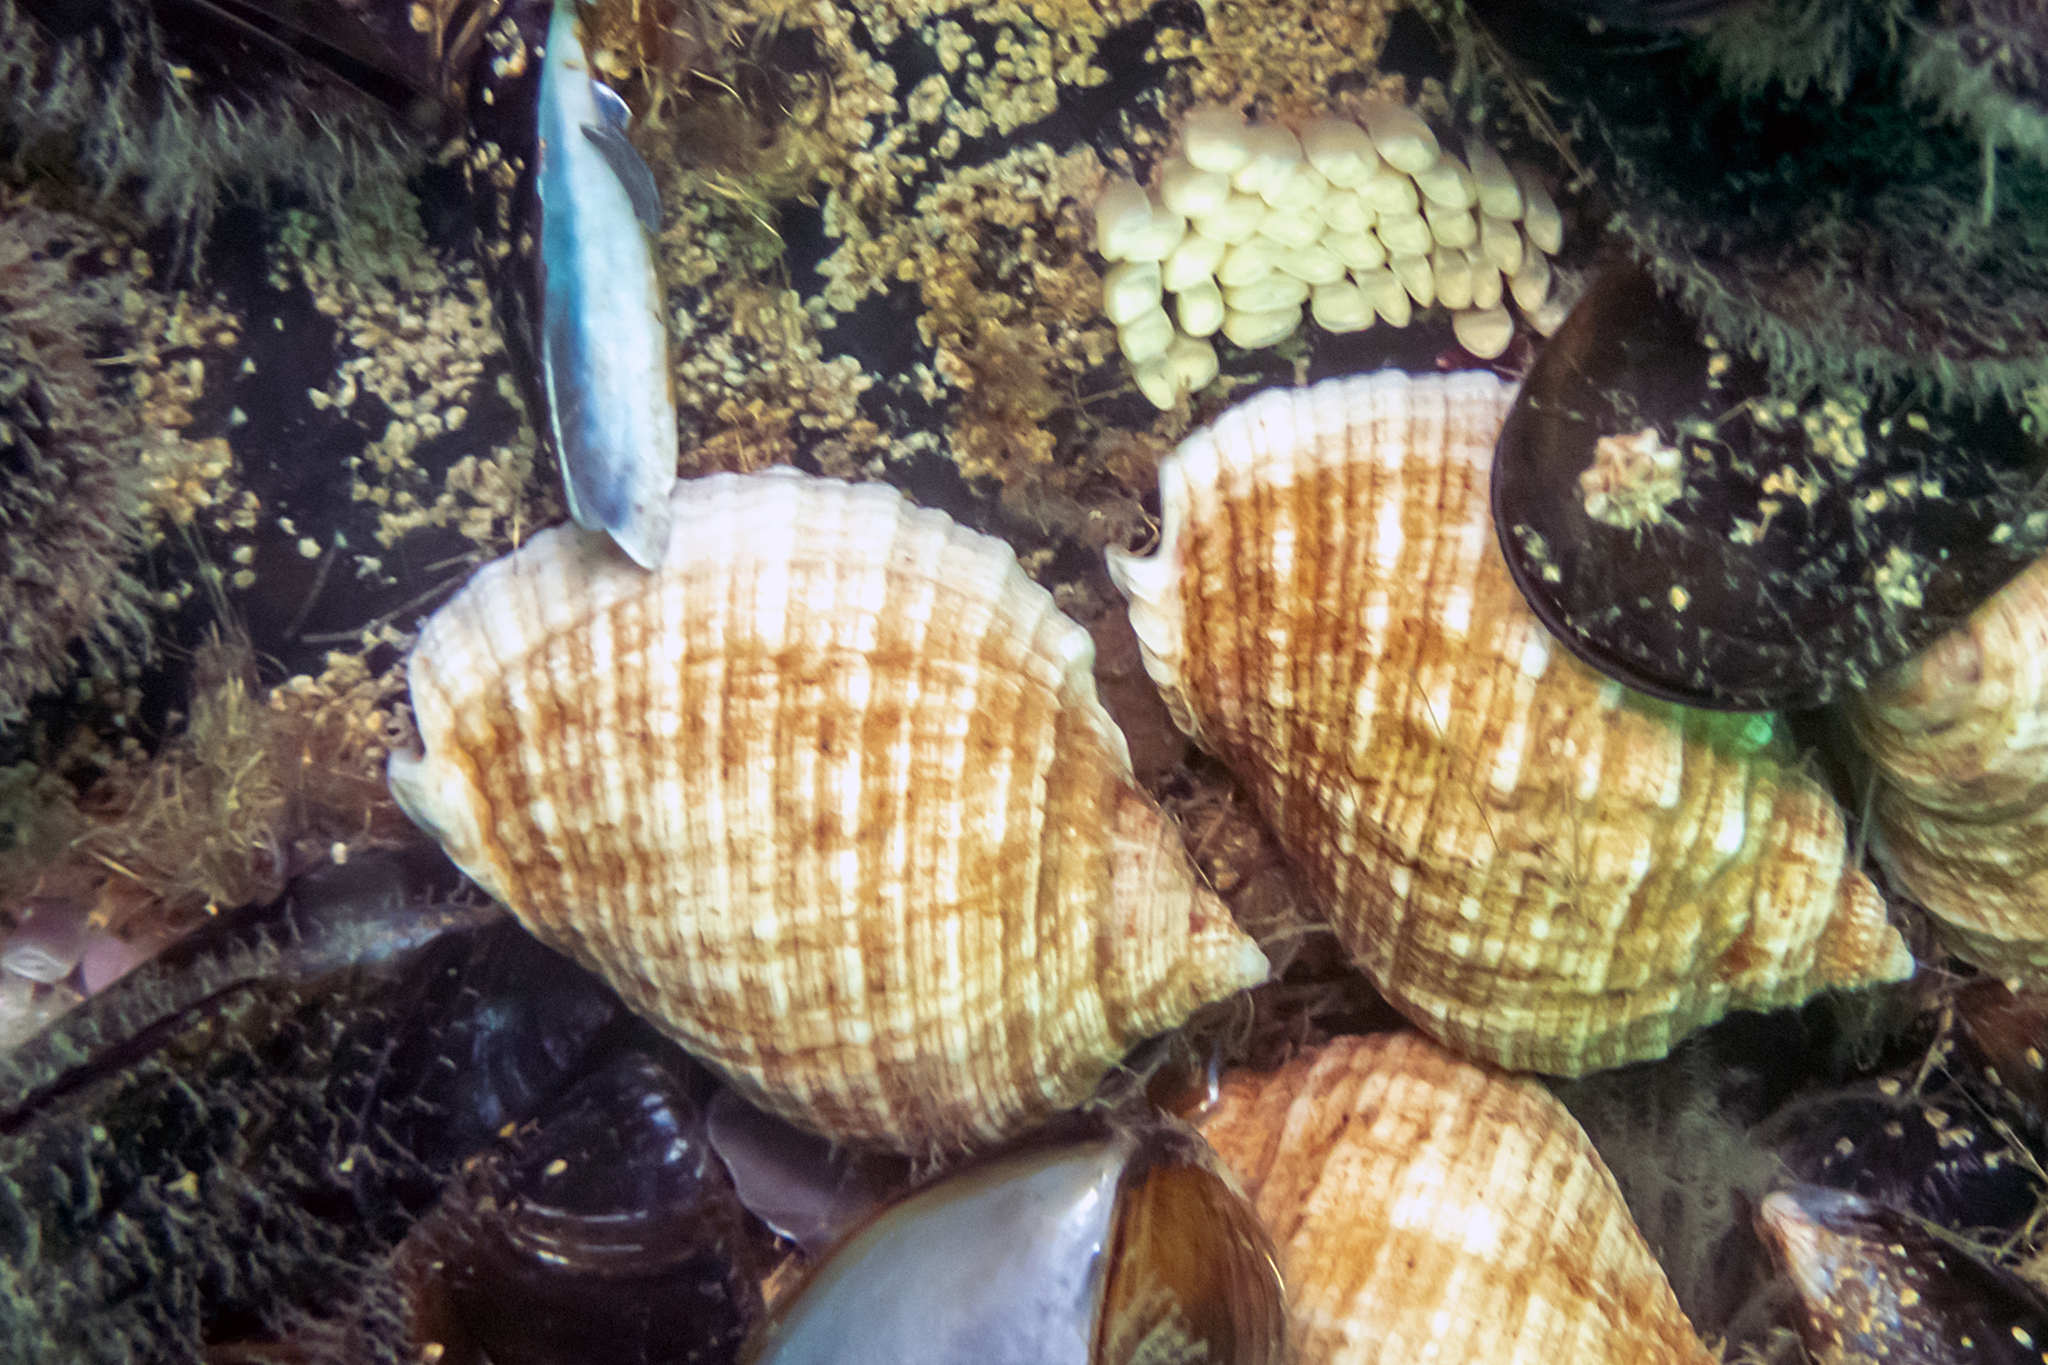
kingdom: Animalia
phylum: Mollusca
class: Gastropoda
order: Neogastropoda
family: Muricidae
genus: Dicathais
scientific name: Dicathais orbita
